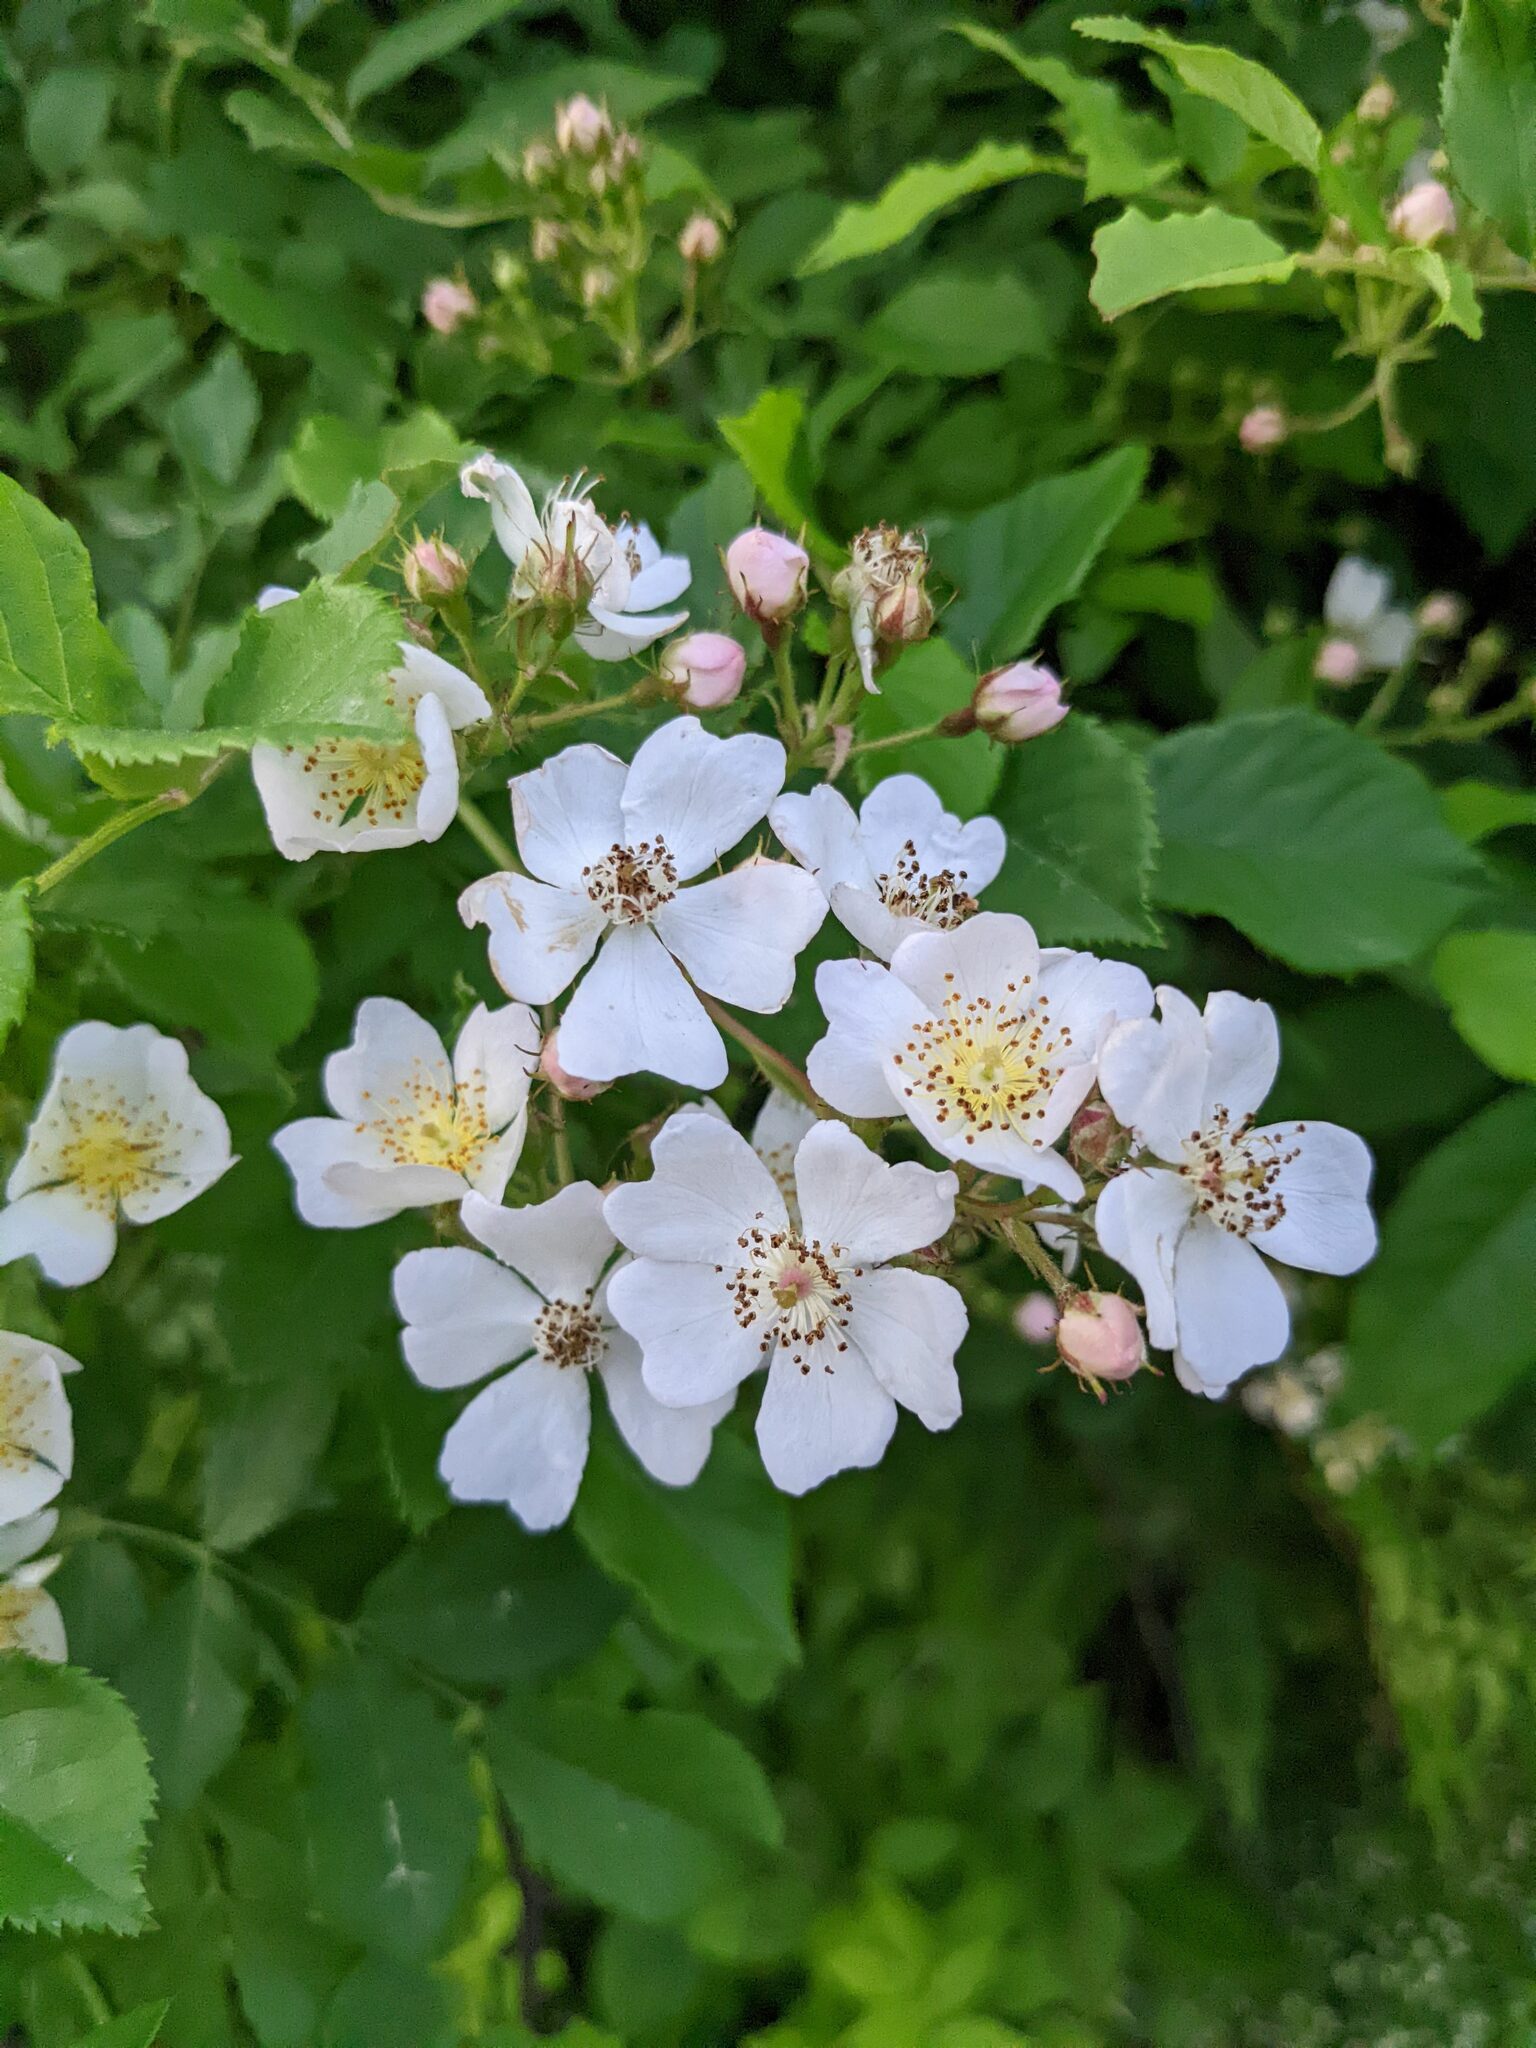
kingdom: Plantae
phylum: Tracheophyta
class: Magnoliopsida
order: Rosales
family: Rosaceae
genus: Rosa
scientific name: Rosa multiflora
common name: Multiflora rose
